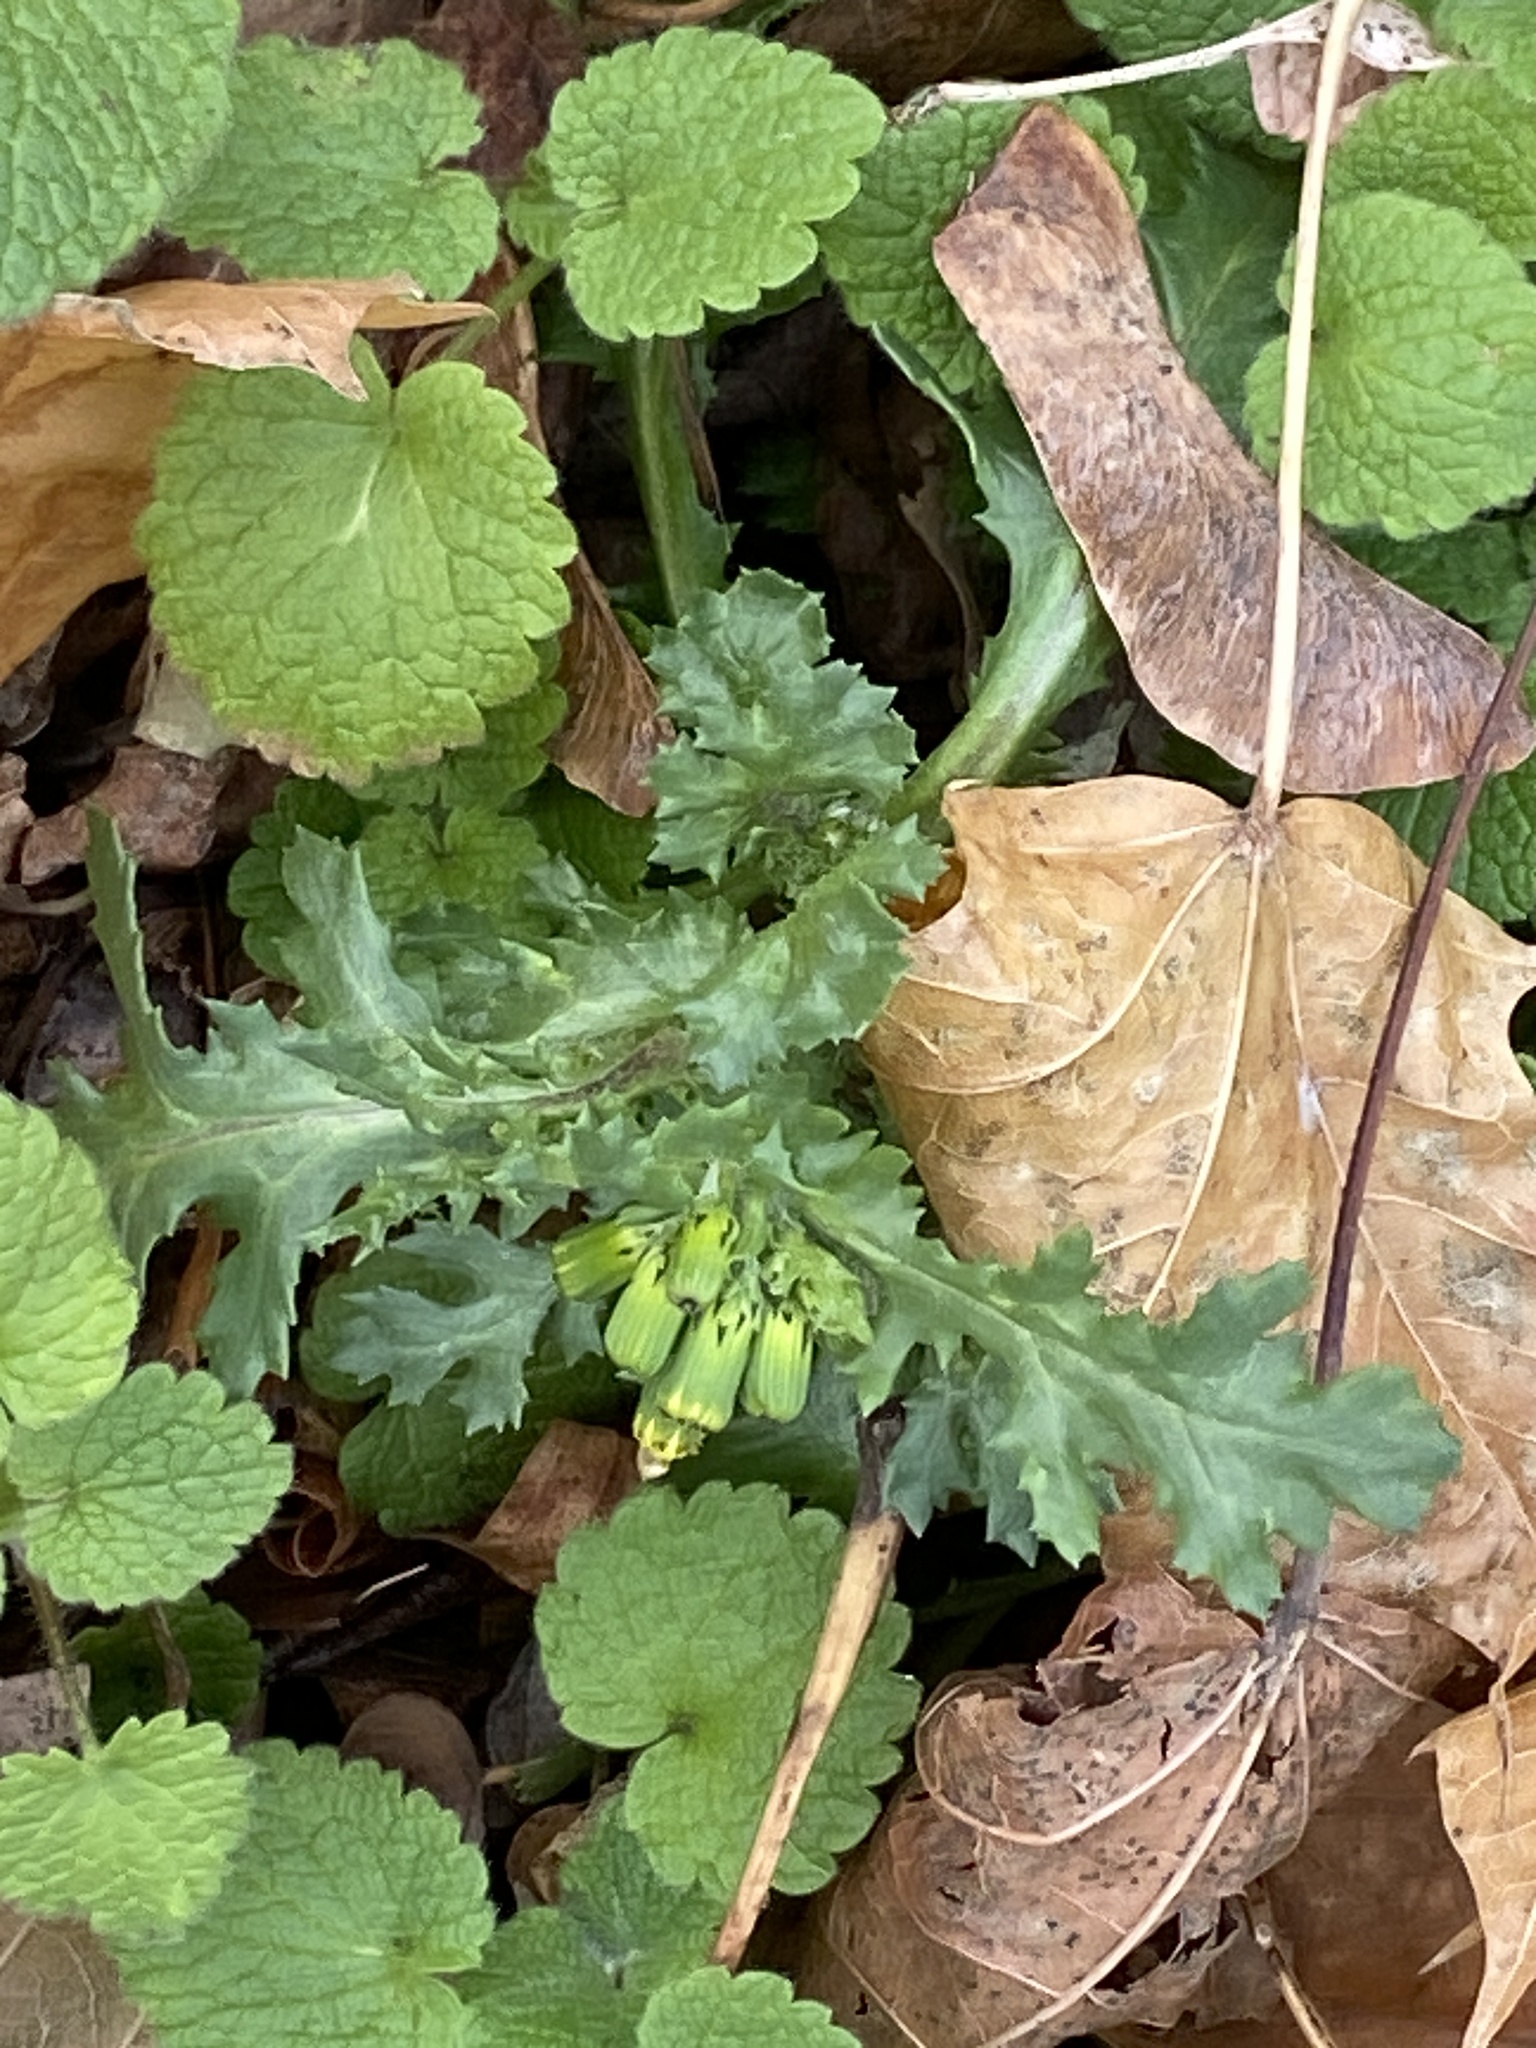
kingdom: Plantae
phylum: Tracheophyta
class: Magnoliopsida
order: Asterales
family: Asteraceae
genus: Senecio
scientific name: Senecio vulgaris
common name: Old-man-in-the-spring
